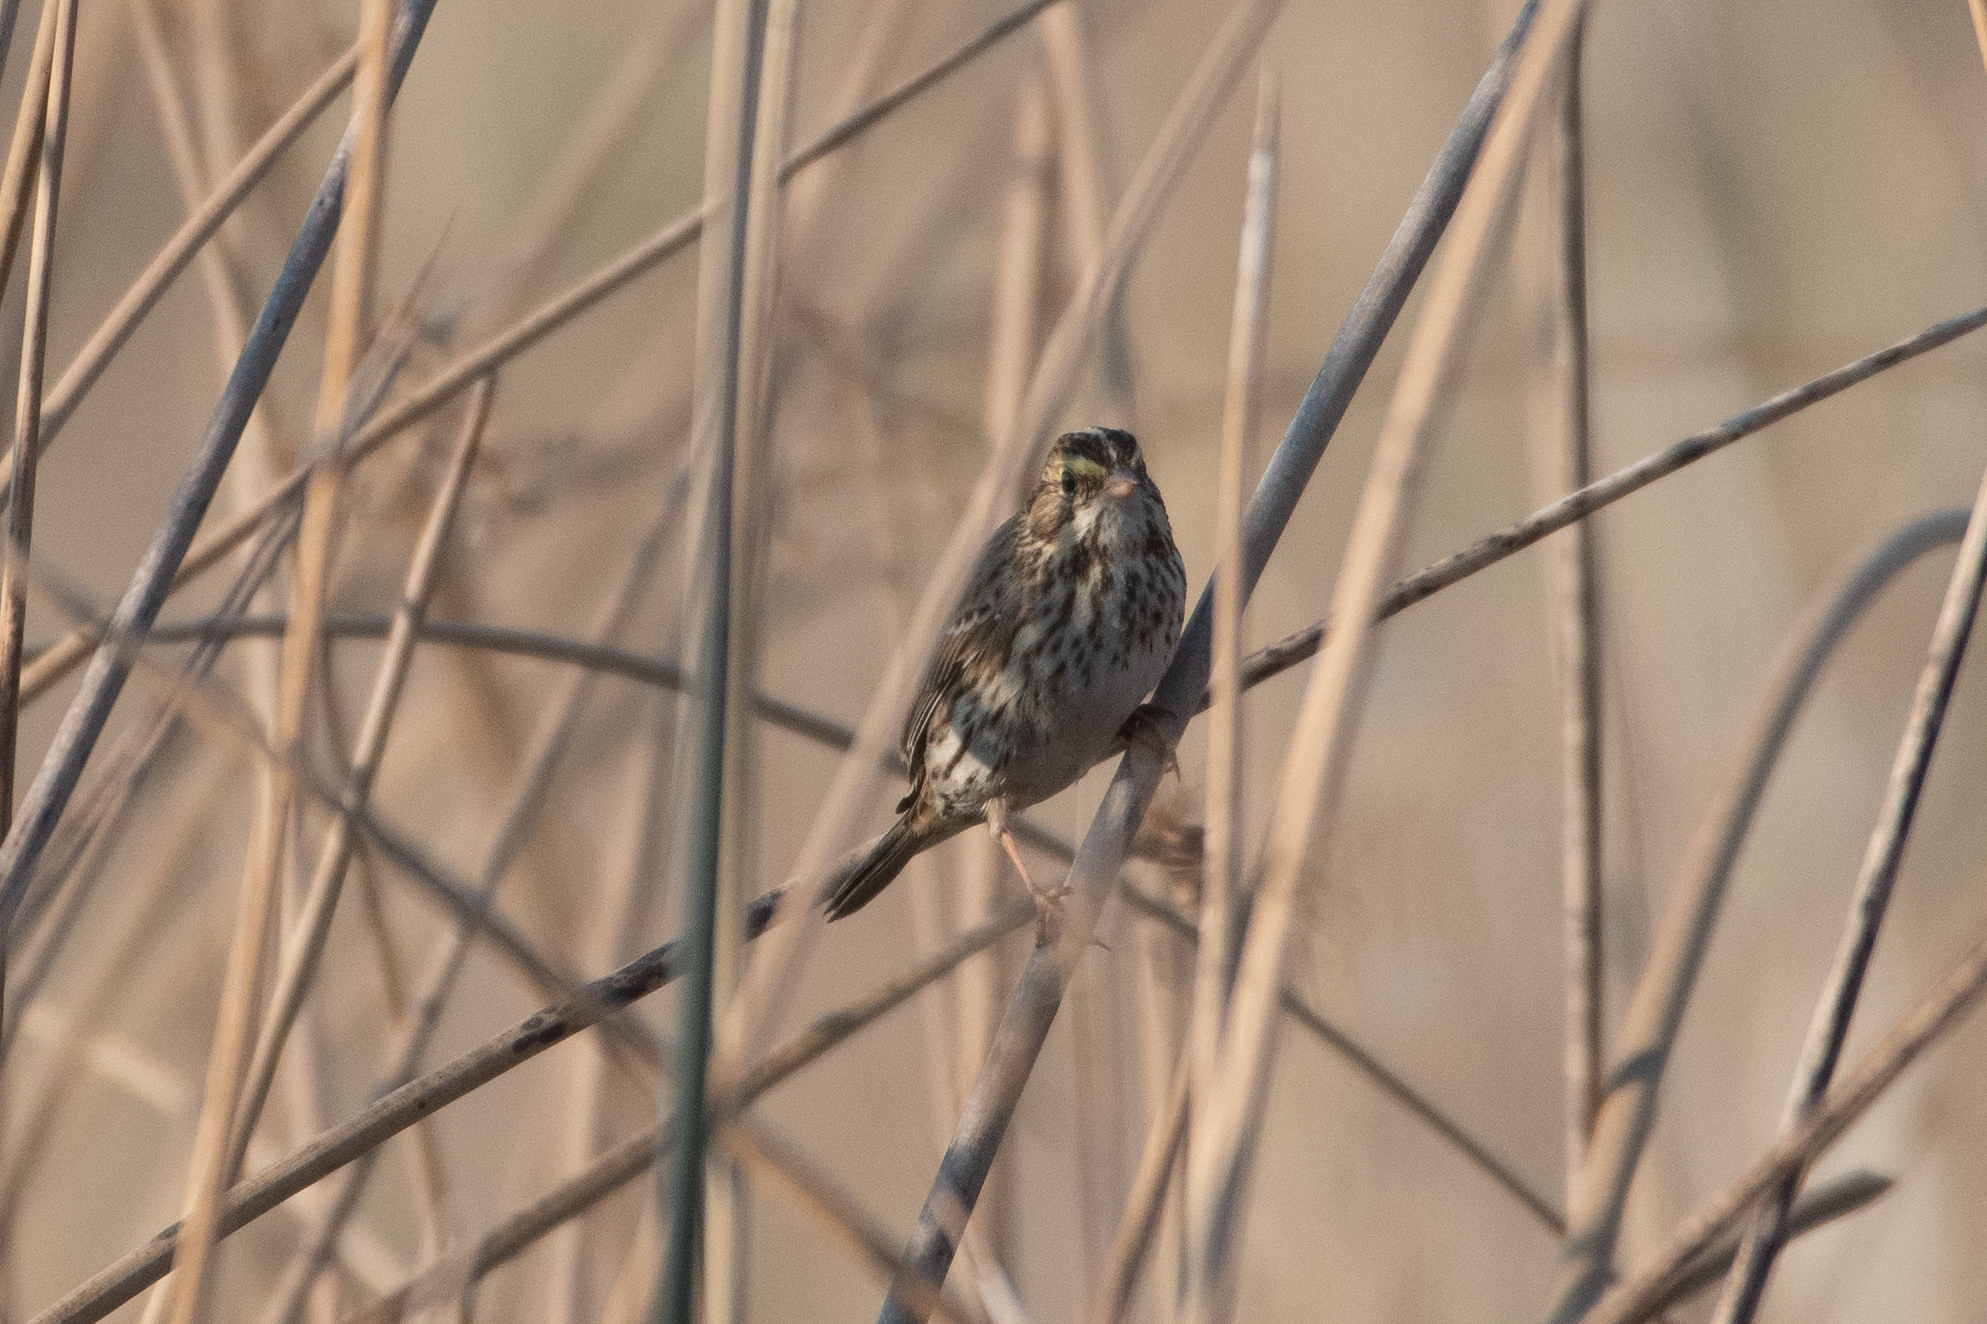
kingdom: Animalia
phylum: Chordata
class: Aves
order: Passeriformes
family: Passerellidae
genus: Passerculus
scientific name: Passerculus sandwichensis
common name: Savannah sparrow
